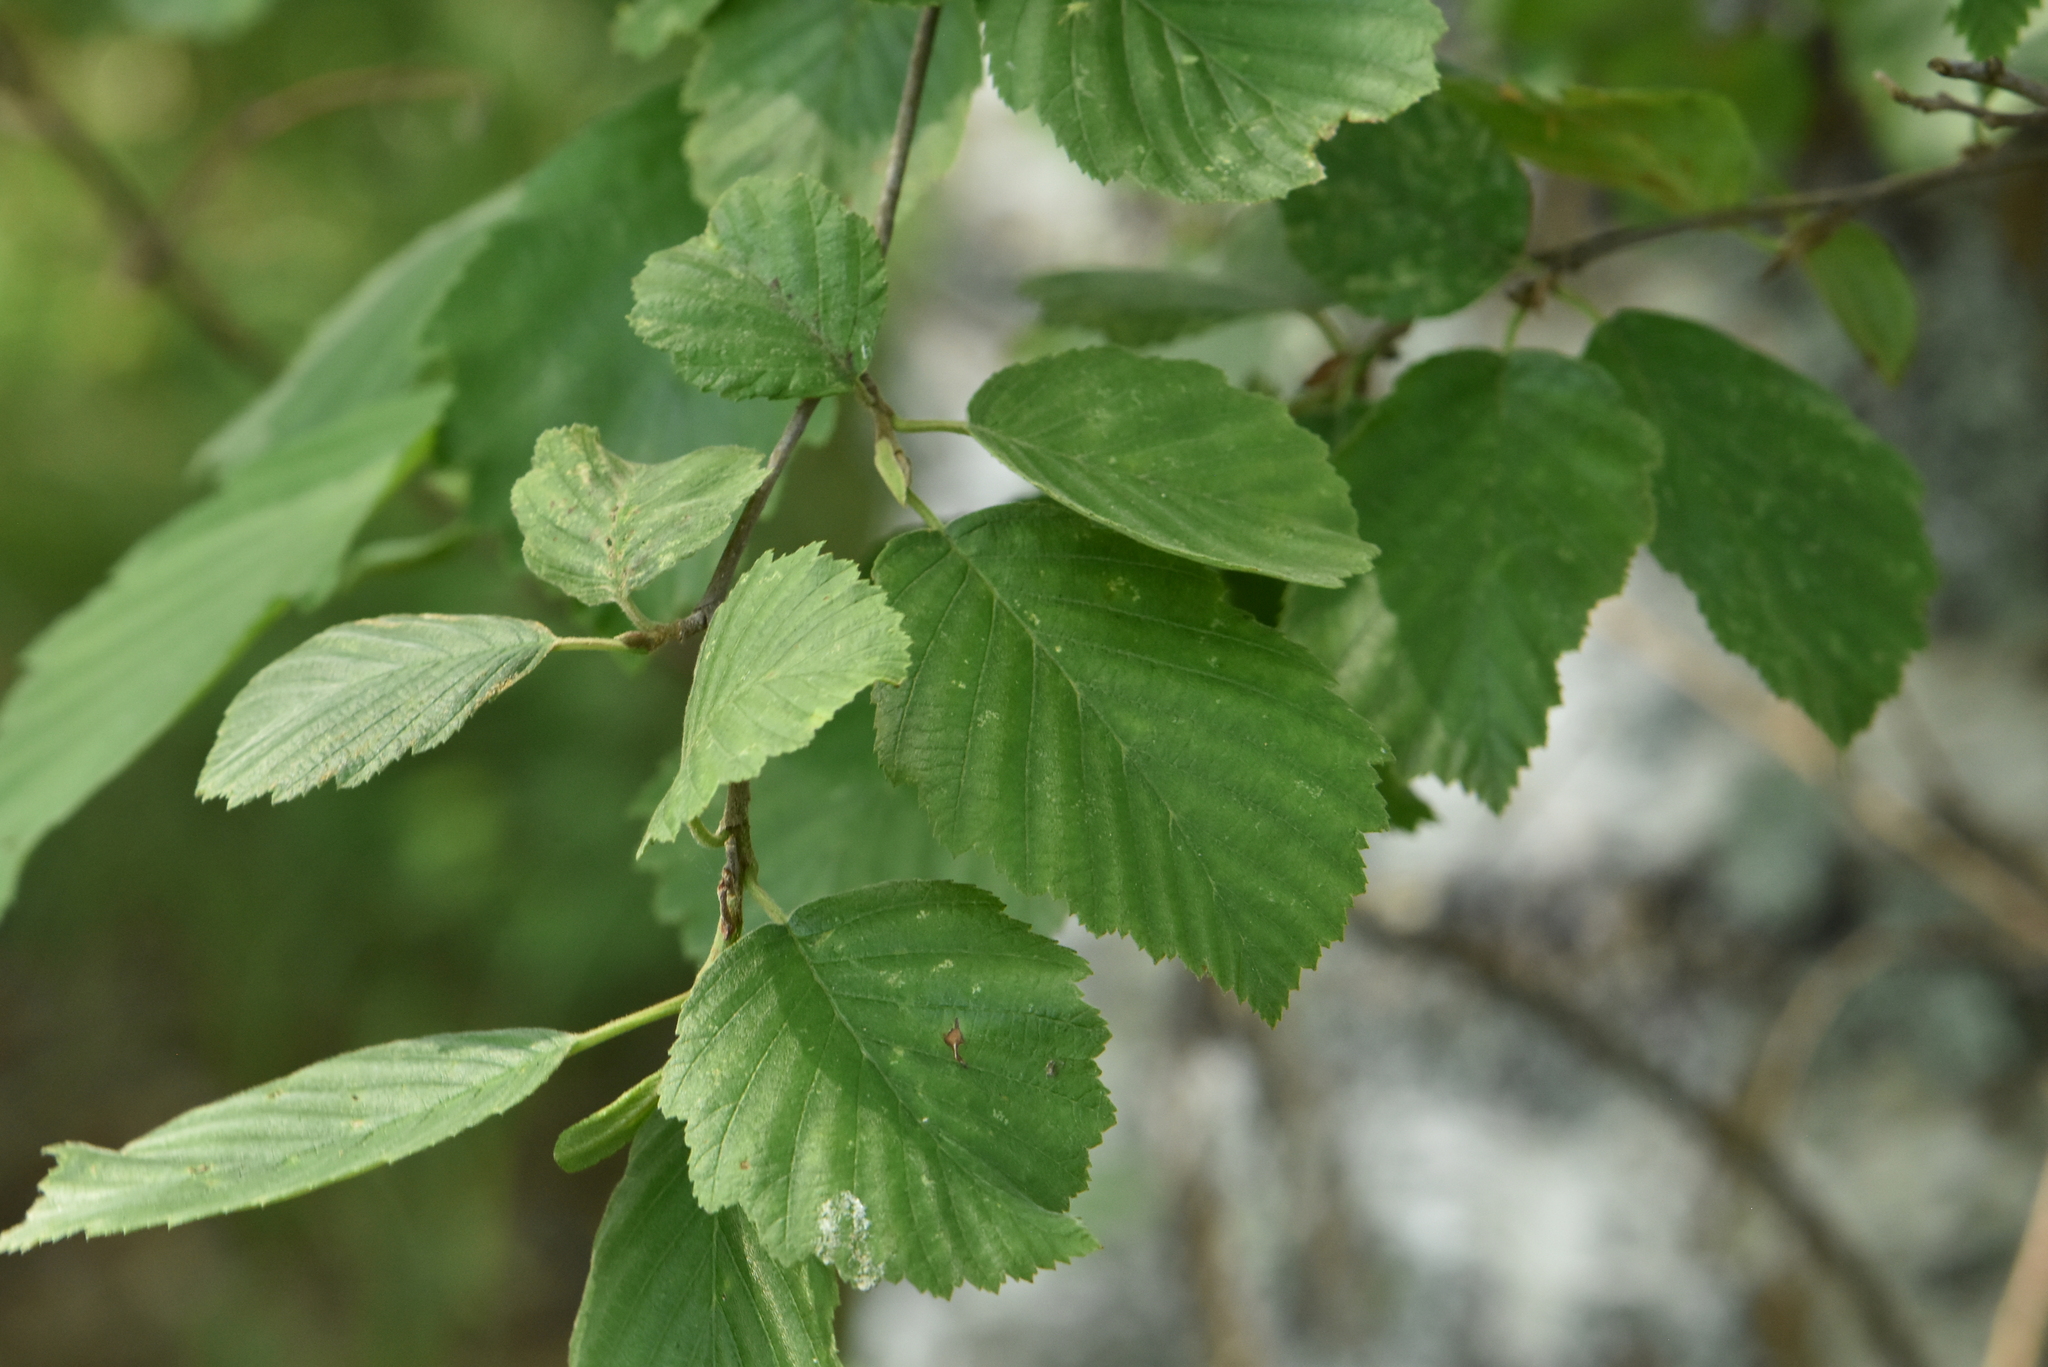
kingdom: Plantae
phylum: Tracheophyta
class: Magnoliopsida
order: Fagales
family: Betulaceae
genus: Alnus
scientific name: Alnus incana
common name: Grey alder
